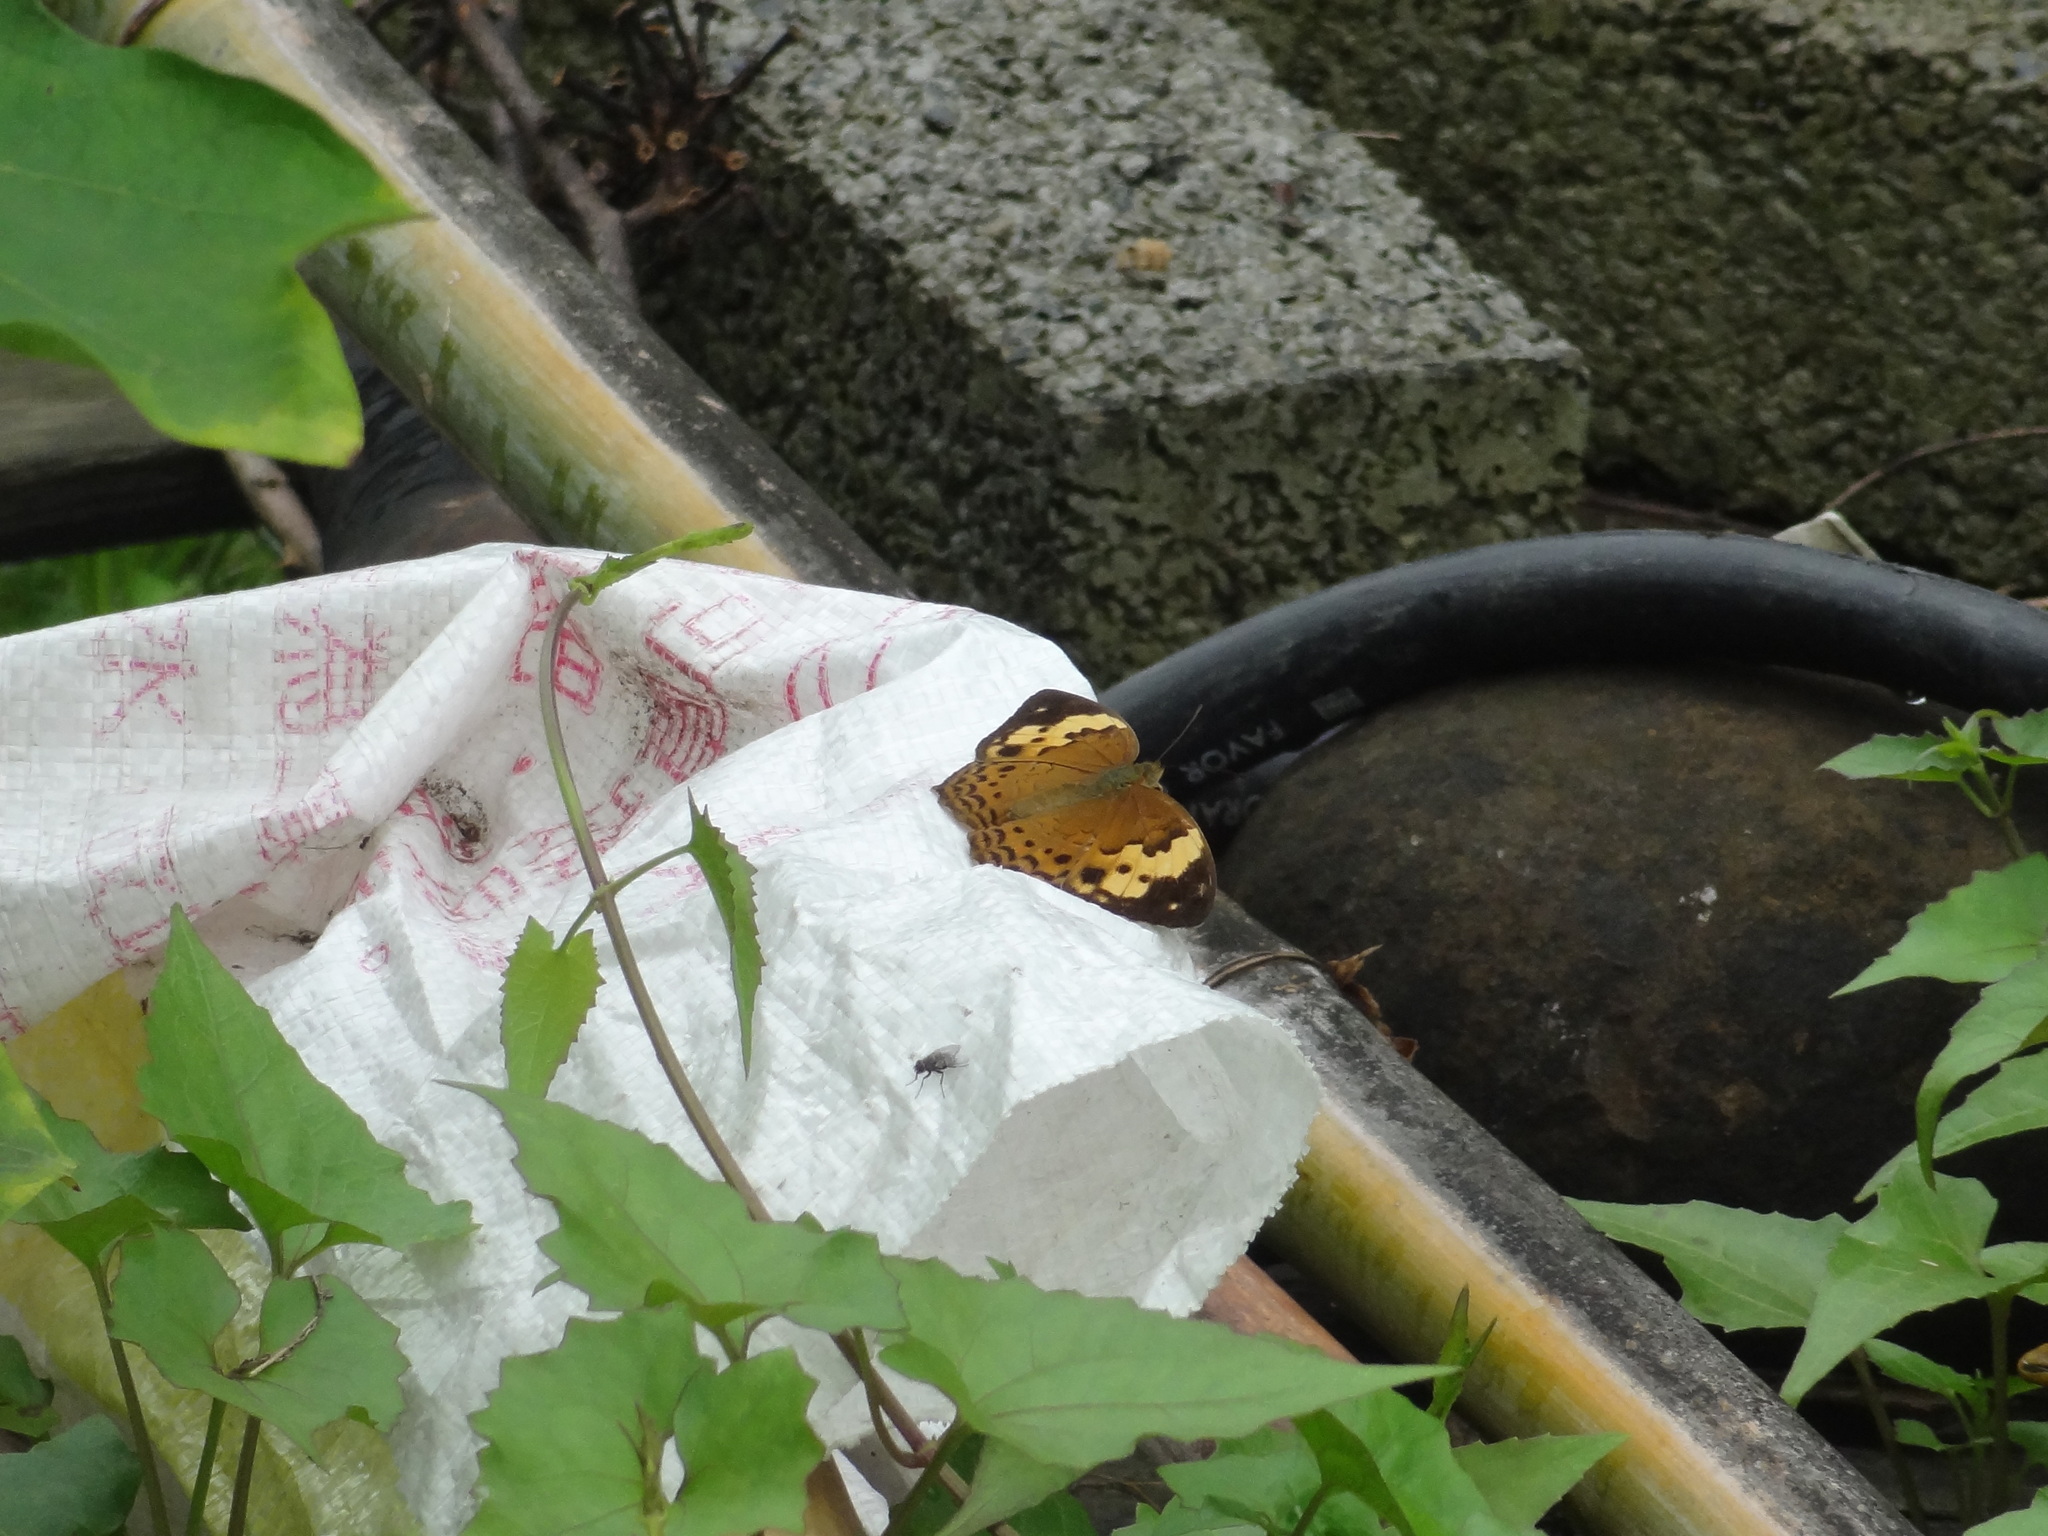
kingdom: Animalia
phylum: Arthropoda
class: Insecta
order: Lepidoptera
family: Nymphalidae
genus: Cupha
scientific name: Cupha erymanthis
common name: Rustic
